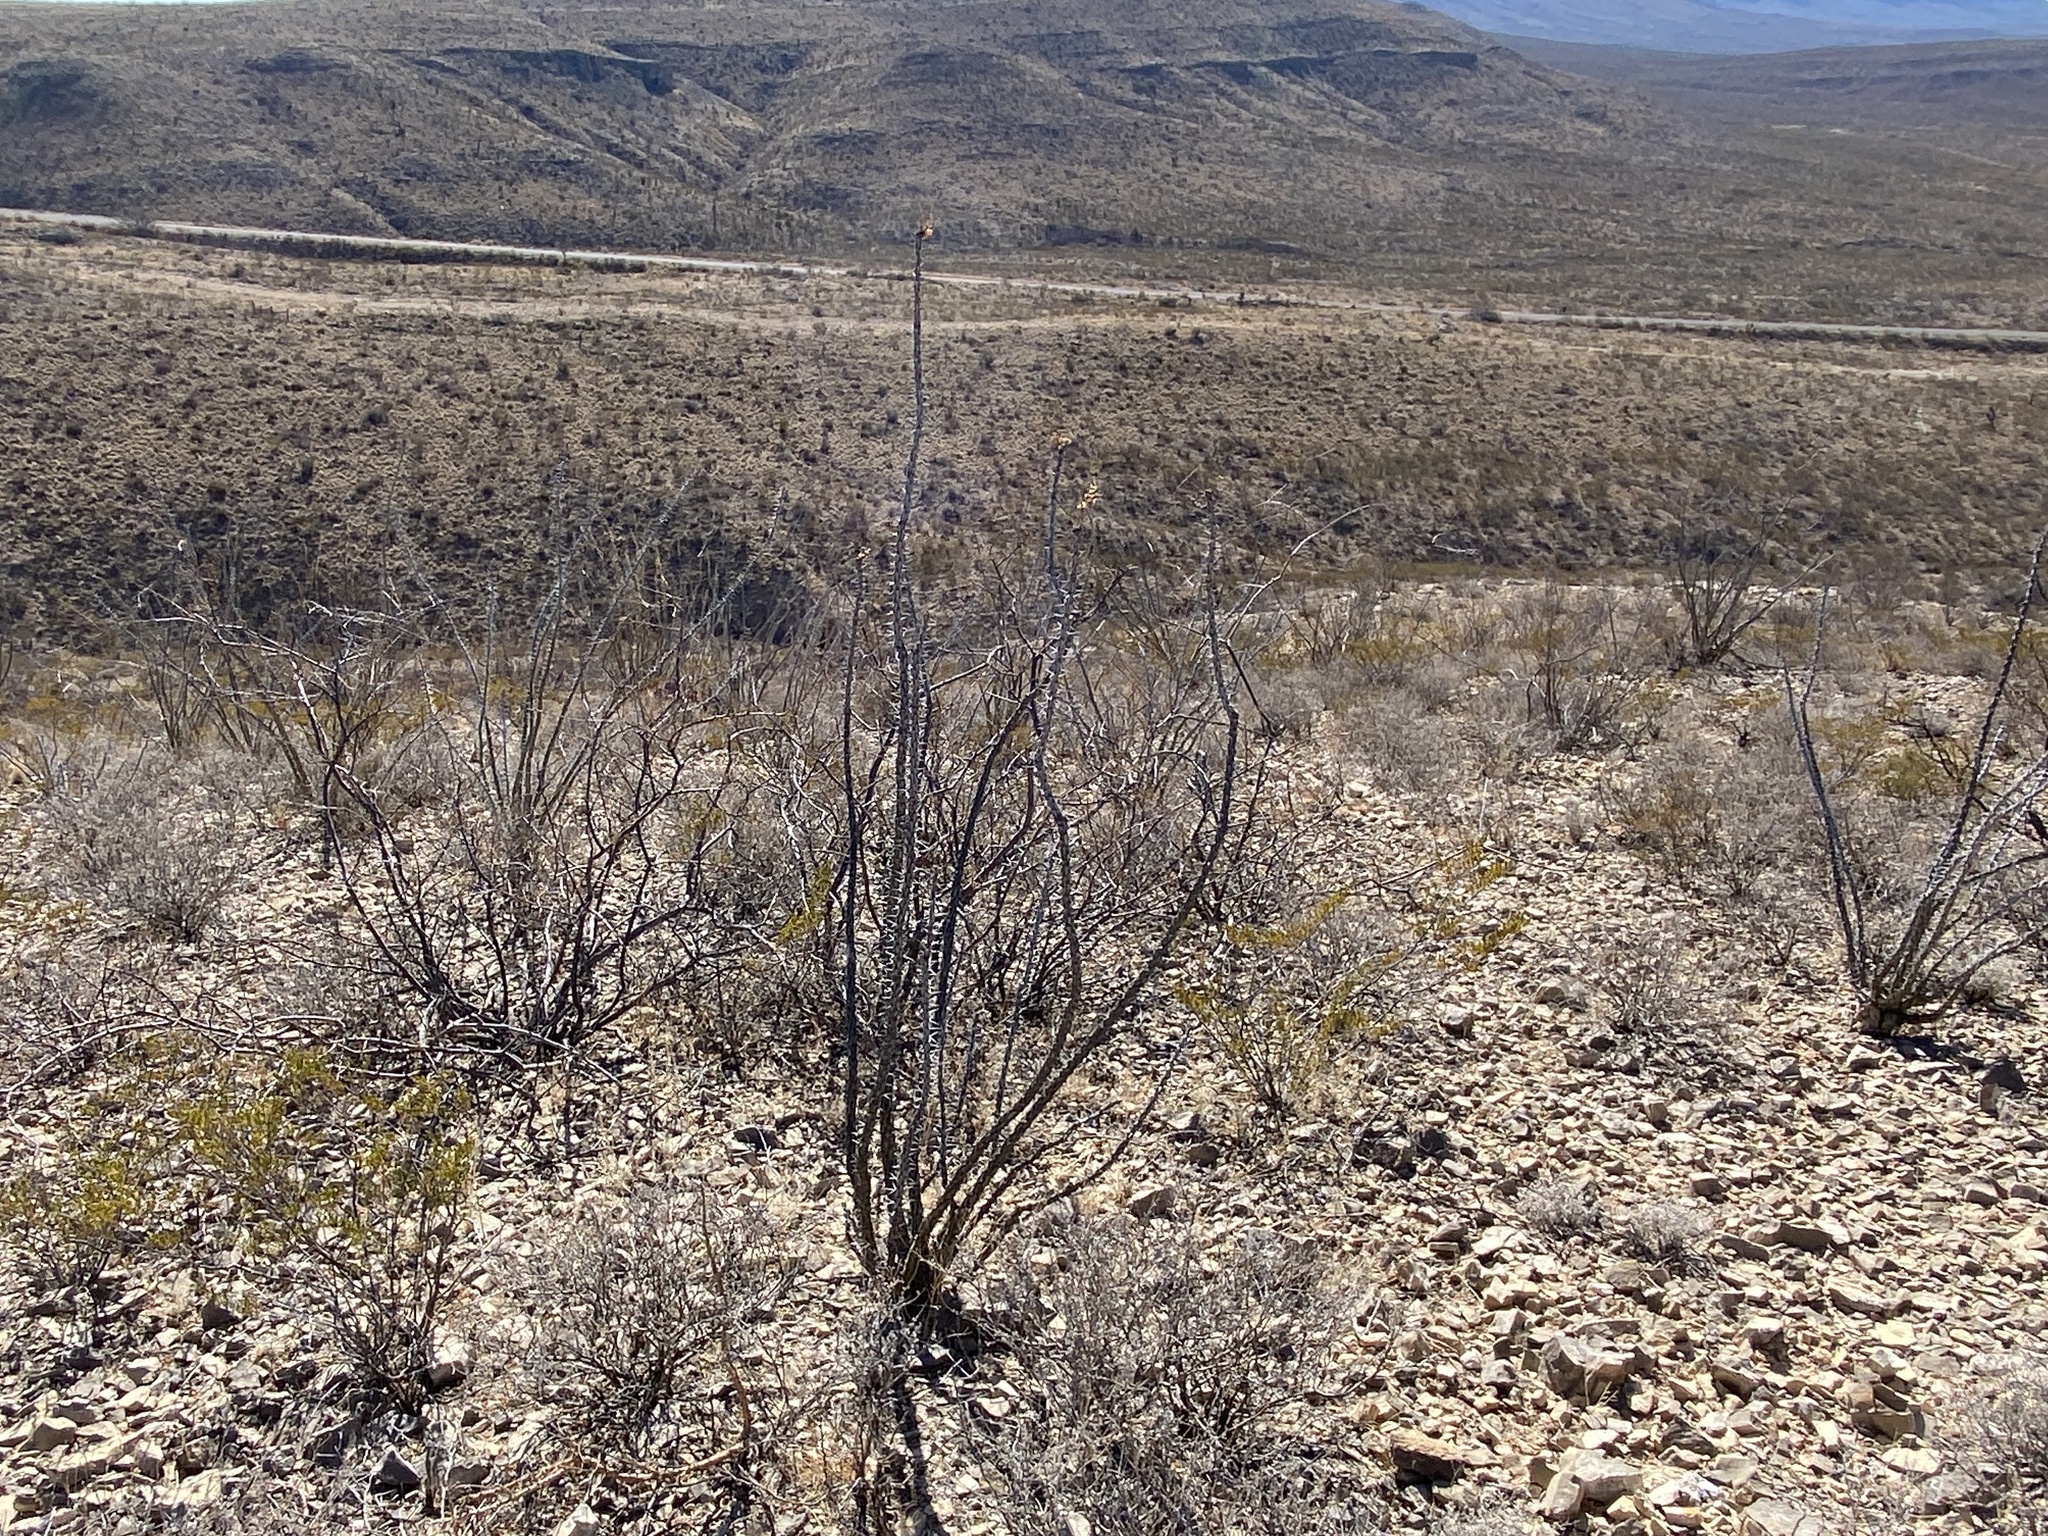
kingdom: Plantae
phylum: Tracheophyta
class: Magnoliopsida
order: Ericales
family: Fouquieriaceae
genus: Fouquieria
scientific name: Fouquieria splendens
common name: Vine-cactus
